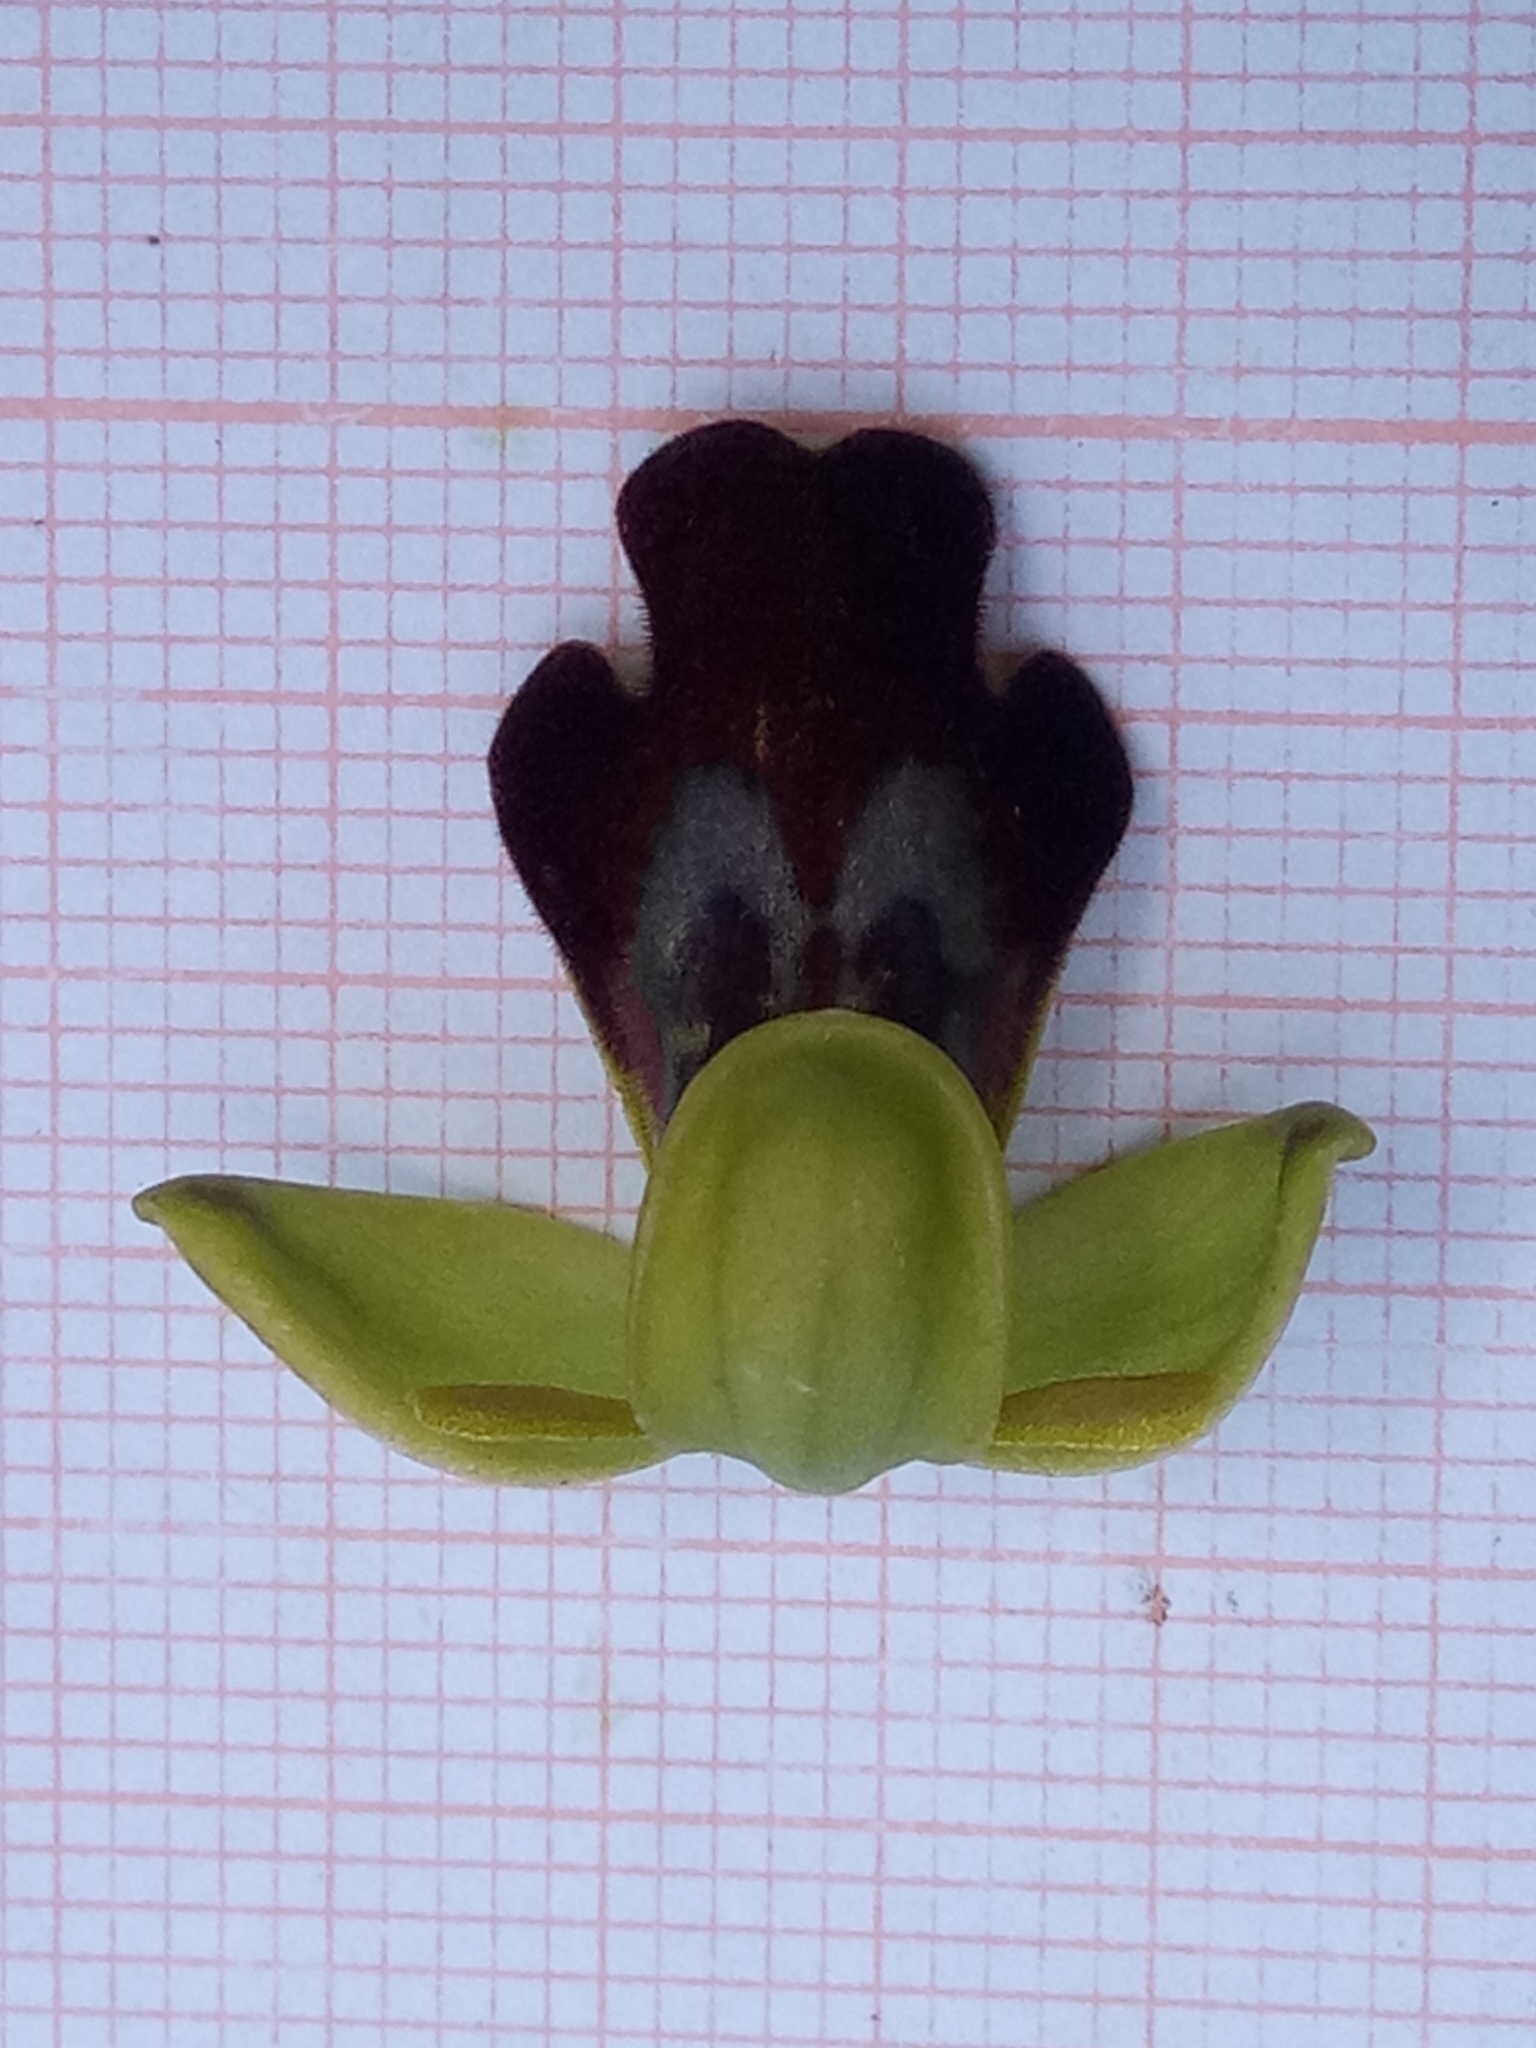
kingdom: Plantae
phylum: Tracheophyta
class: Liliopsida
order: Asparagales
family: Orchidaceae
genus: Ophrys
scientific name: Ophrys fusca
